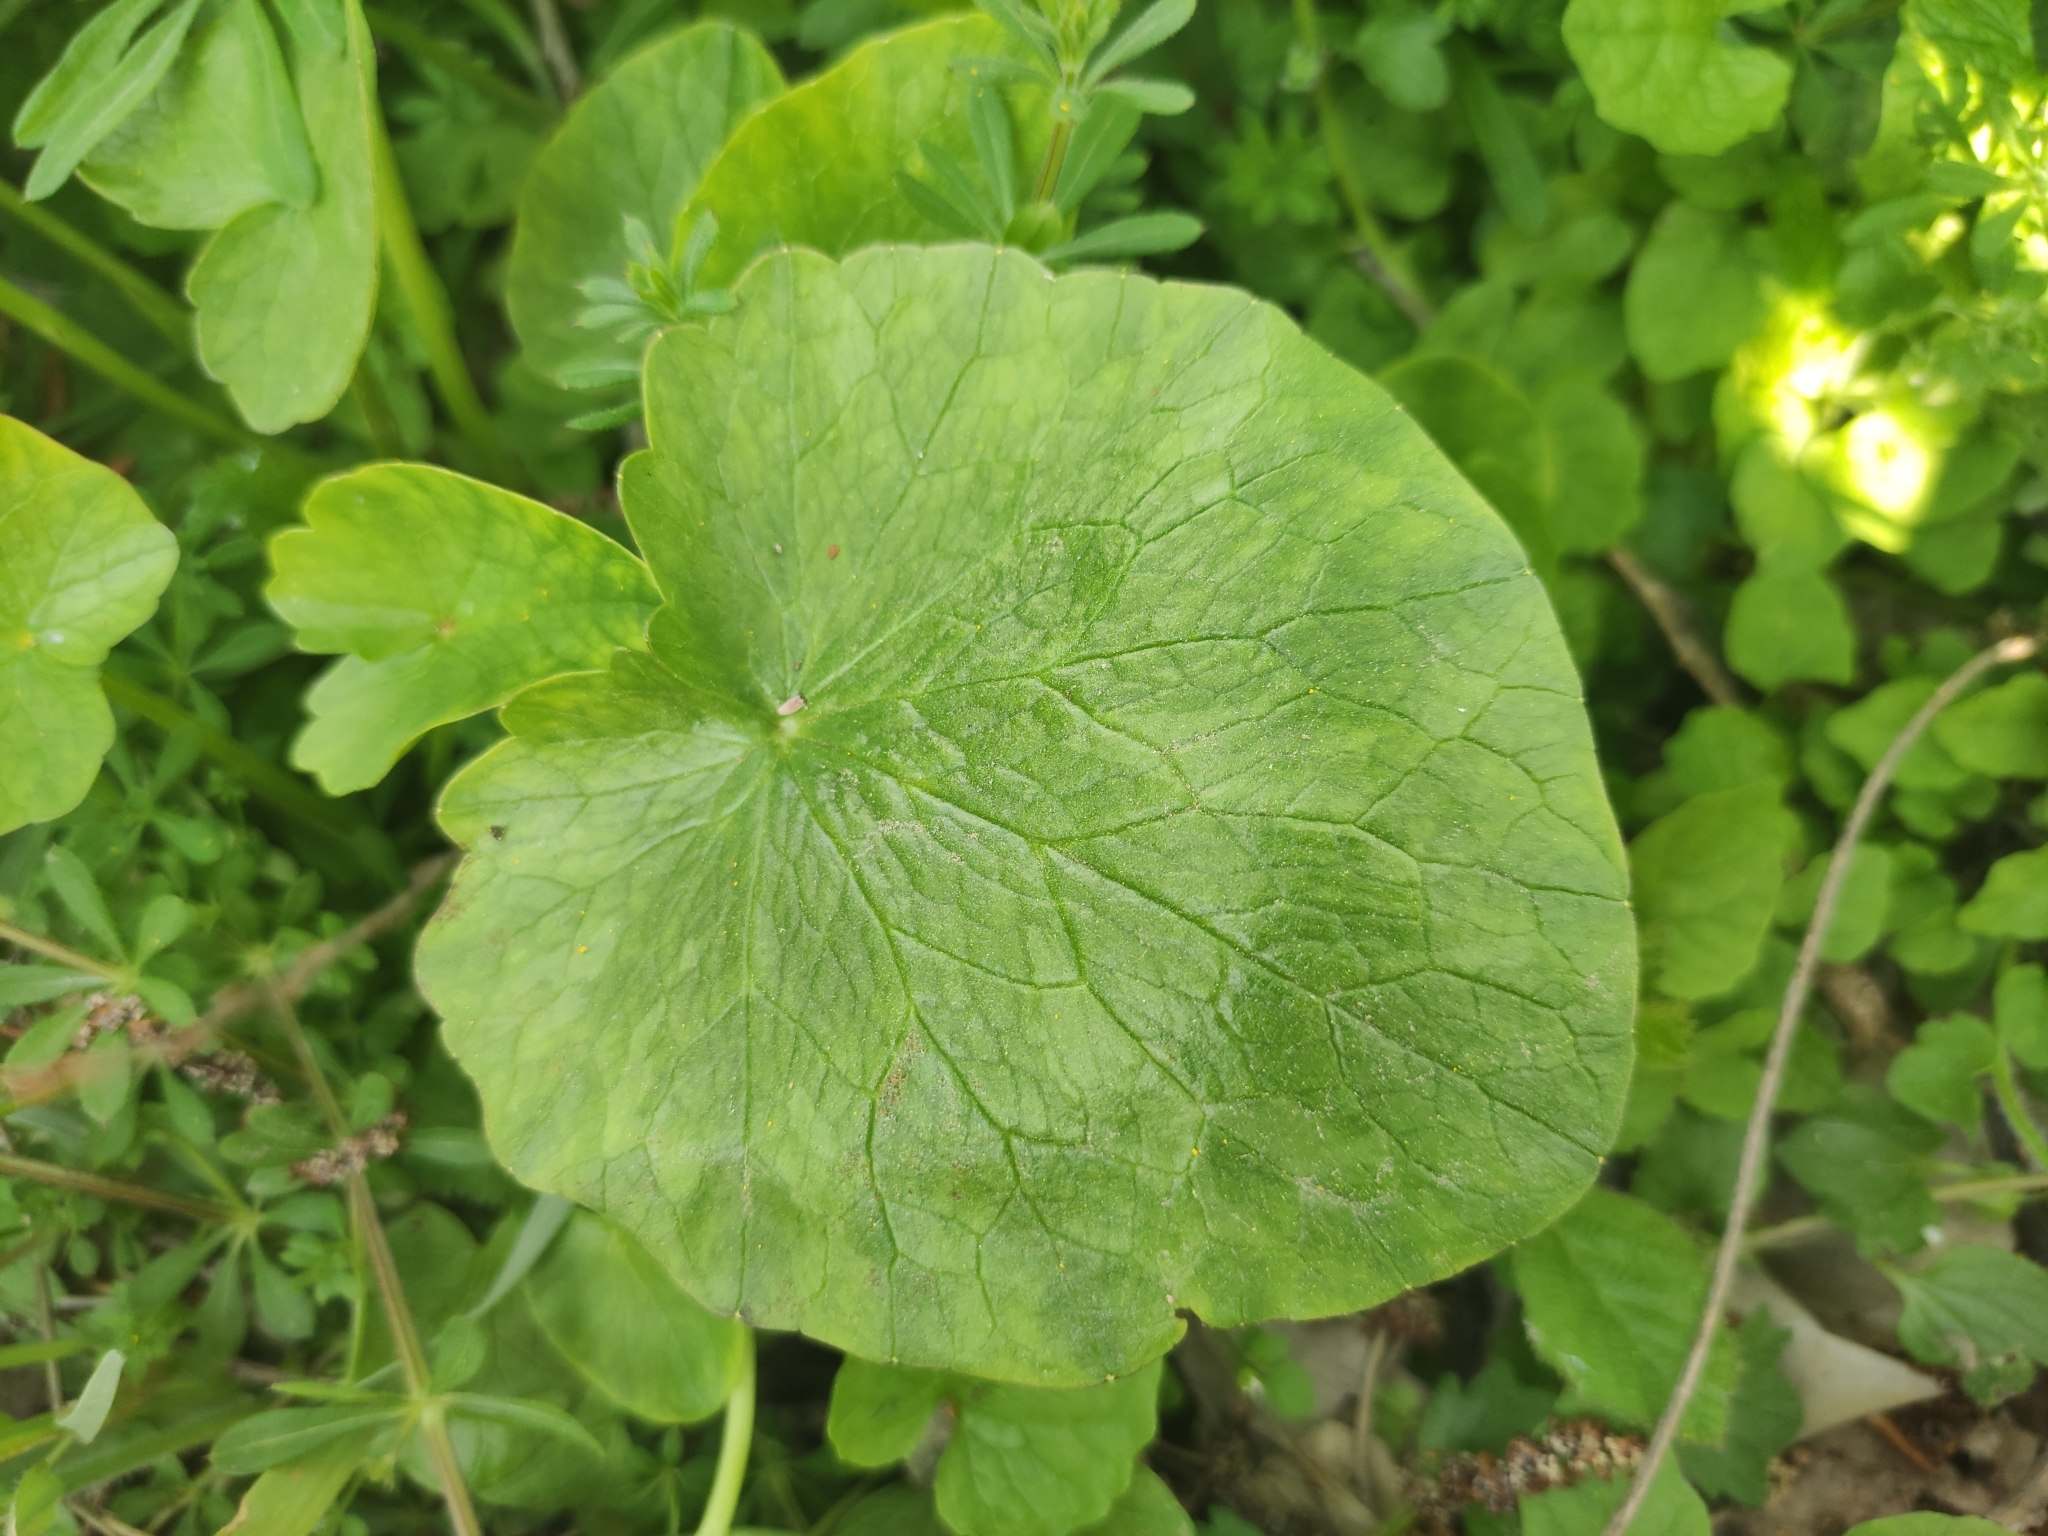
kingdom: Plantae
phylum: Tracheophyta
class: Magnoliopsida
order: Ranunculales
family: Ranunculaceae
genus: Ficaria
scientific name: Ficaria verna
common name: Lesser celandine
